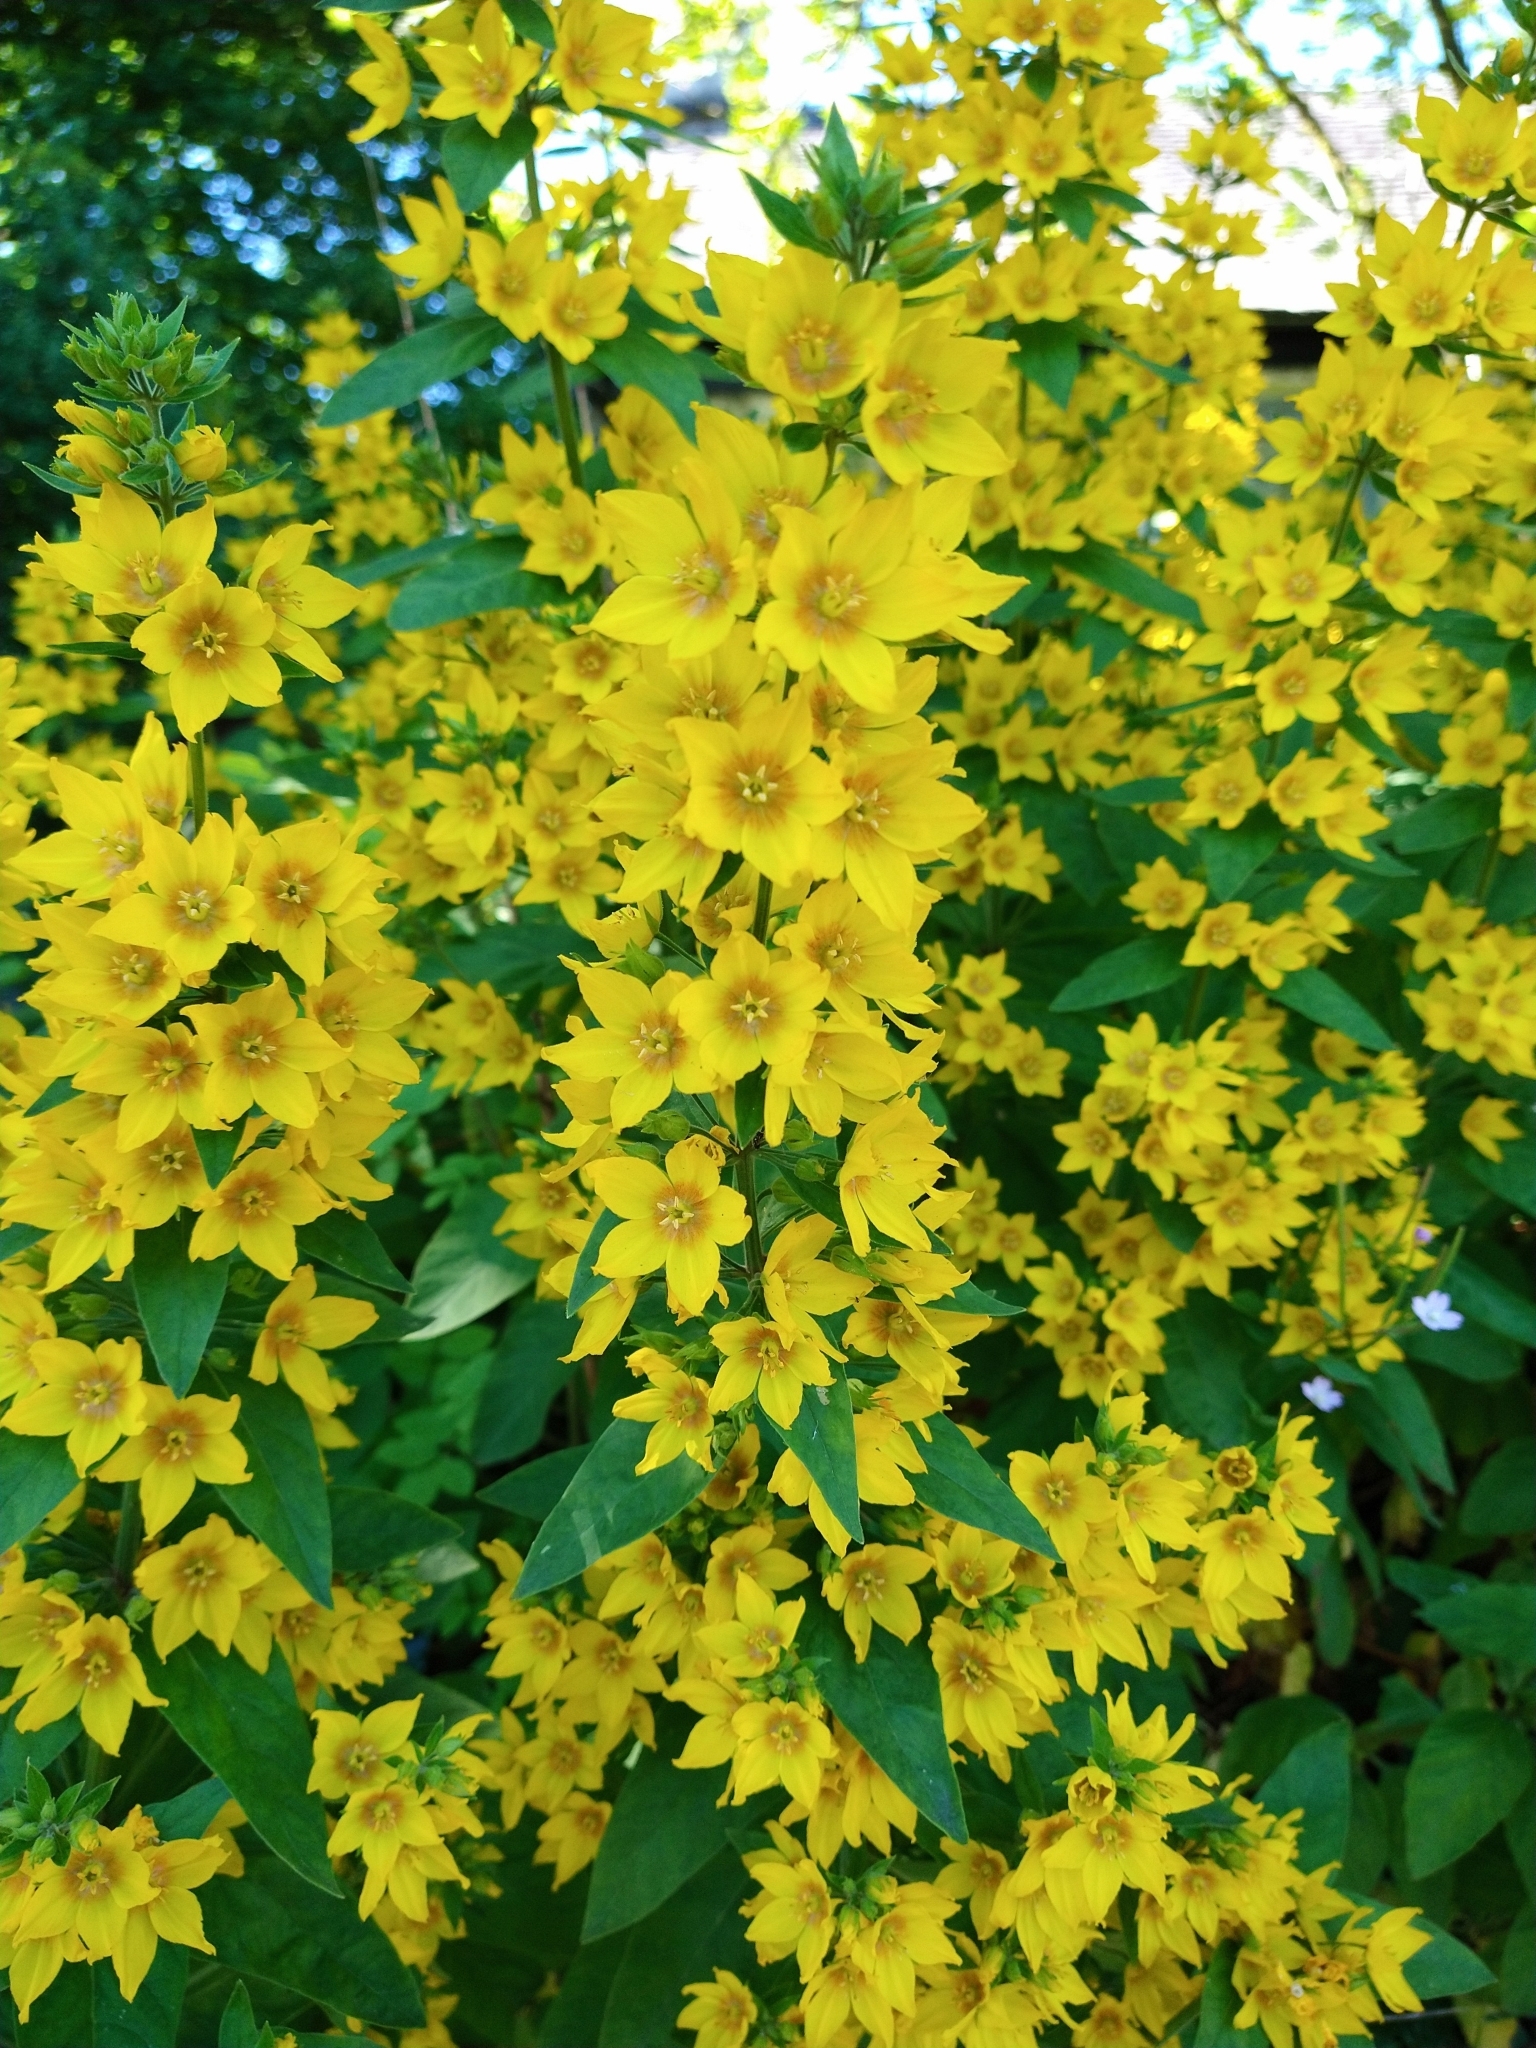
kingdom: Plantae
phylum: Tracheophyta
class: Magnoliopsida
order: Ericales
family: Primulaceae
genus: Lysimachia
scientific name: Lysimachia punctata
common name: Dotted loosestrife
